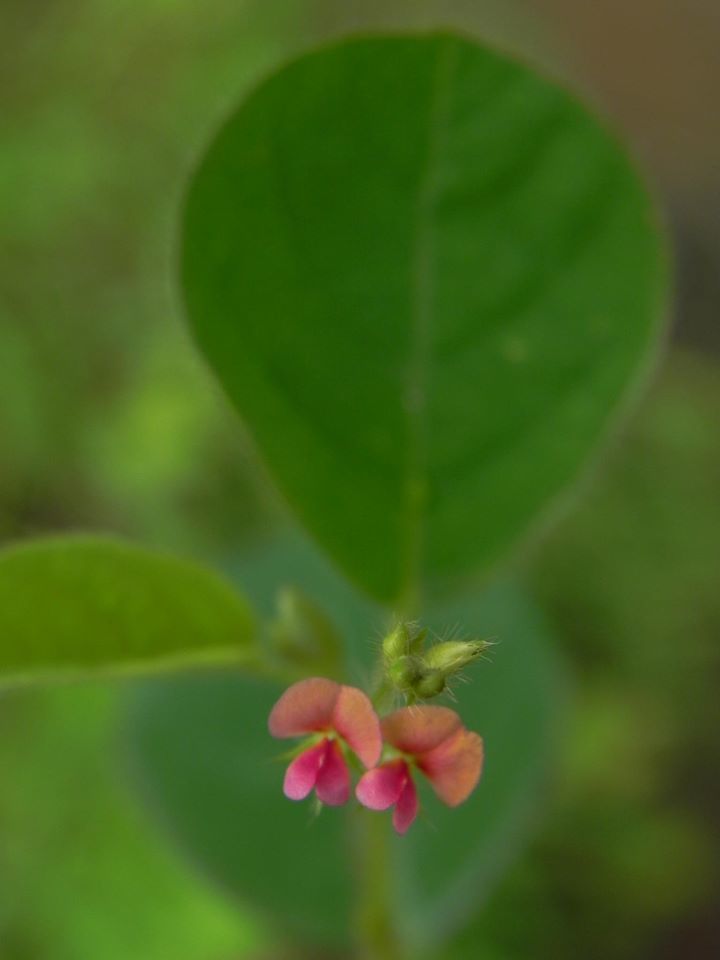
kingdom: Plantae
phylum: Tracheophyta
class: Magnoliopsida
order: Fabales
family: Fabaceae
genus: Indigofera
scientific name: Indigofera trifoliata
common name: Threeleaf indigo
